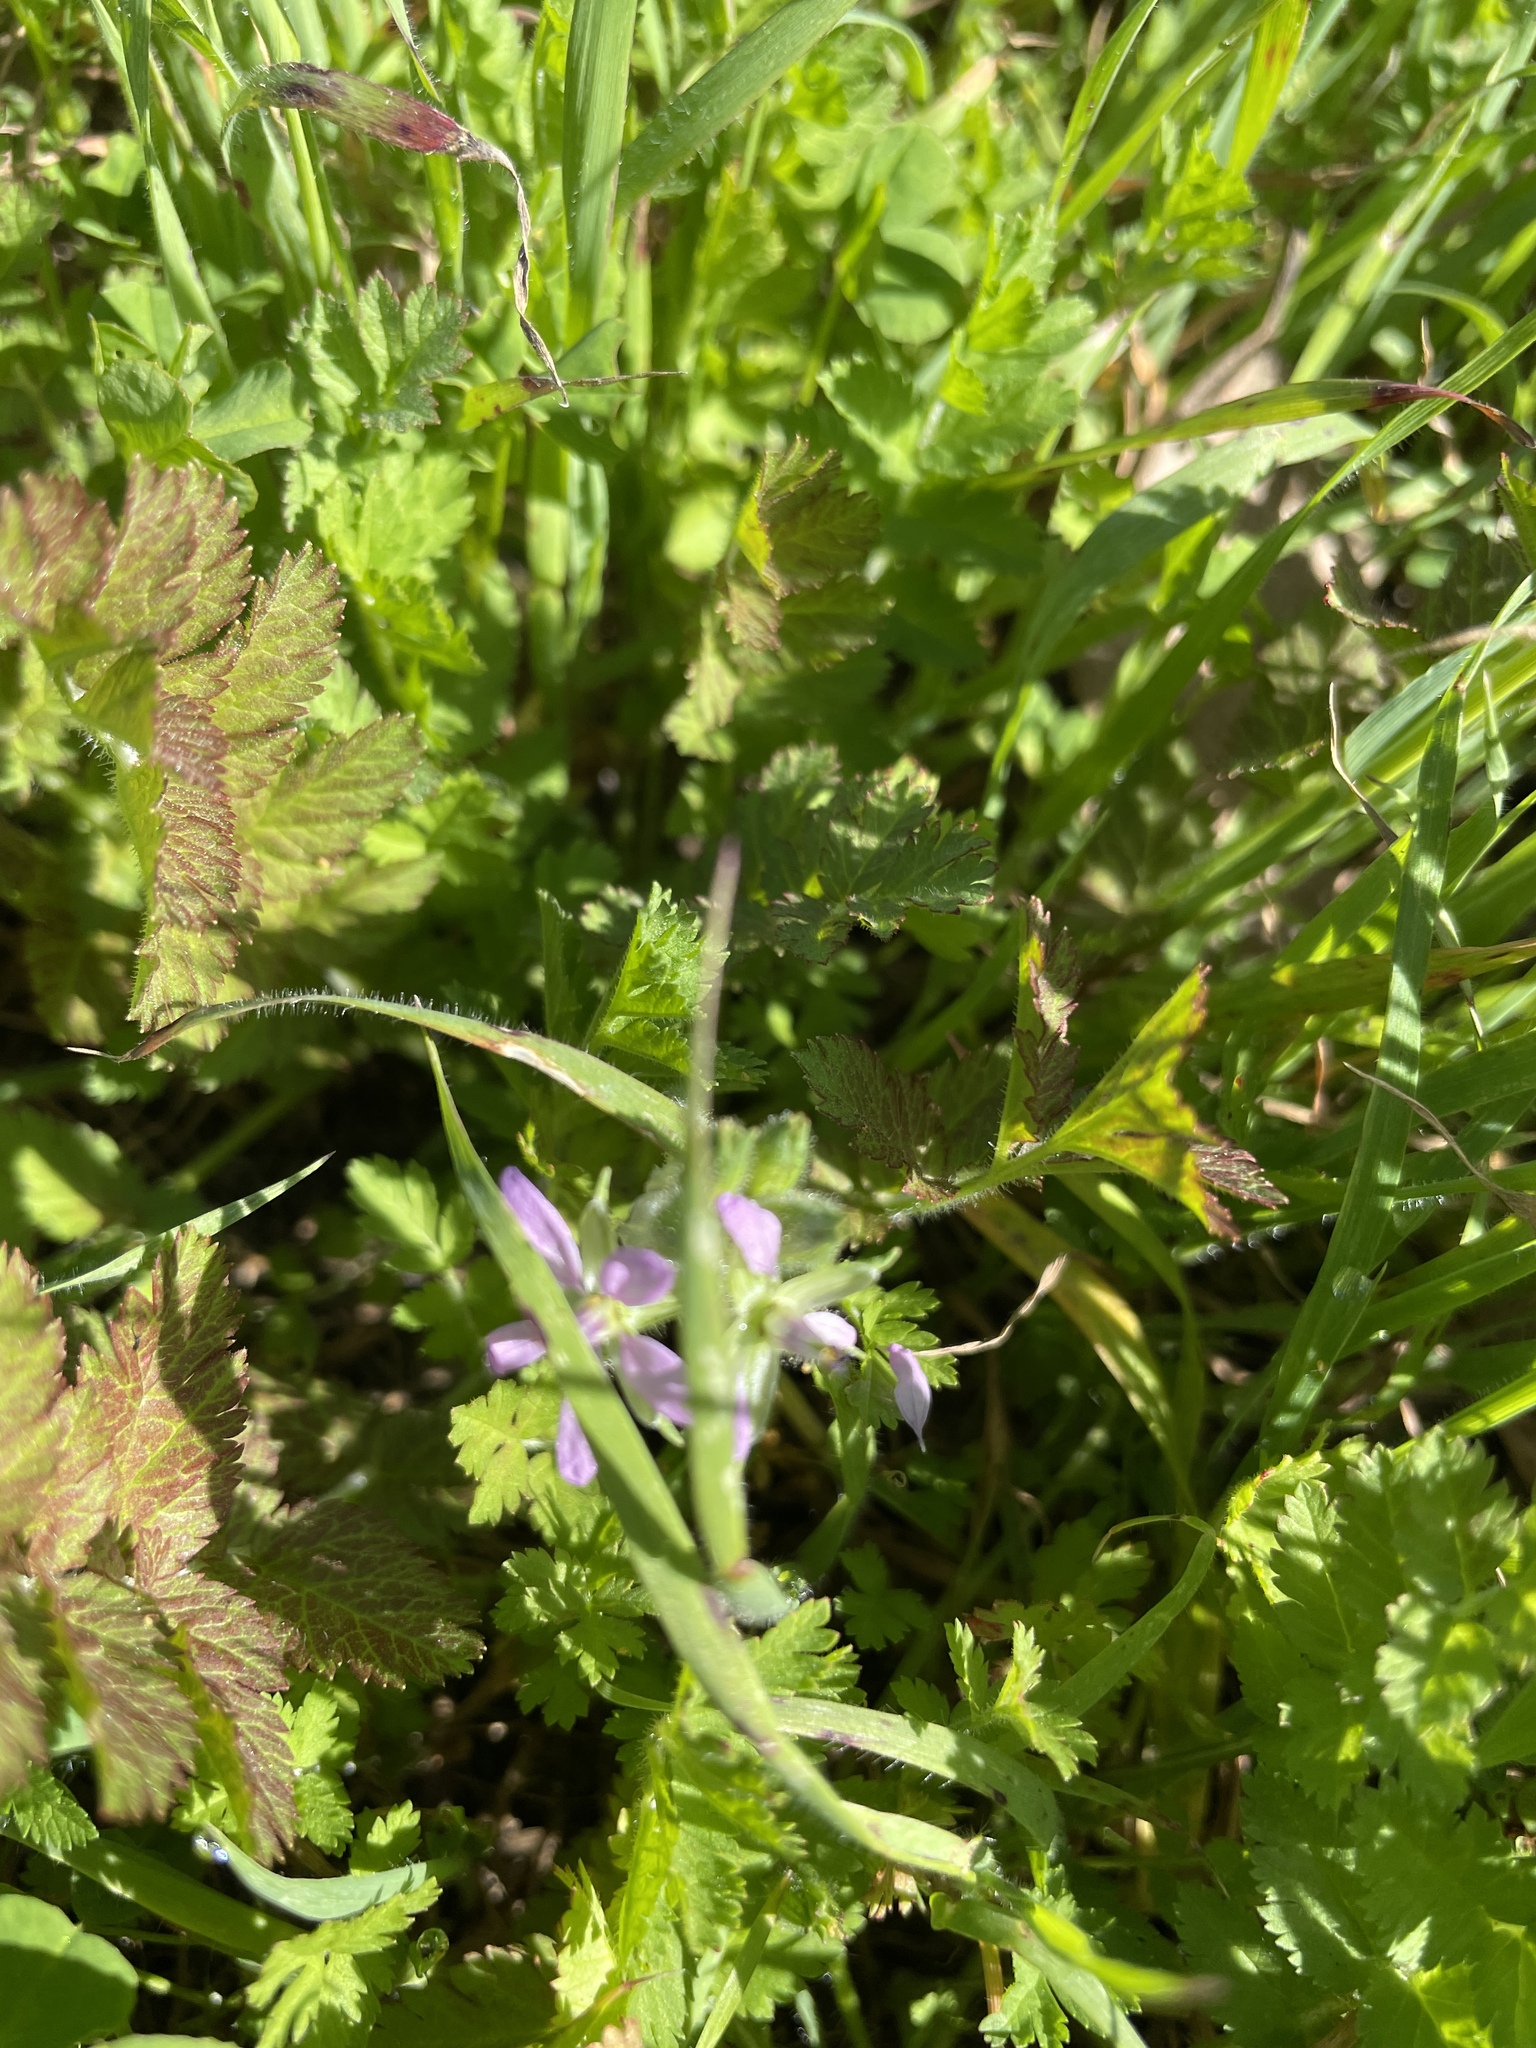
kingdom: Plantae
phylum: Tracheophyta
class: Magnoliopsida
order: Geraniales
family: Geraniaceae
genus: Erodium
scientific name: Erodium moschatum
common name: Musk stork's-bill
